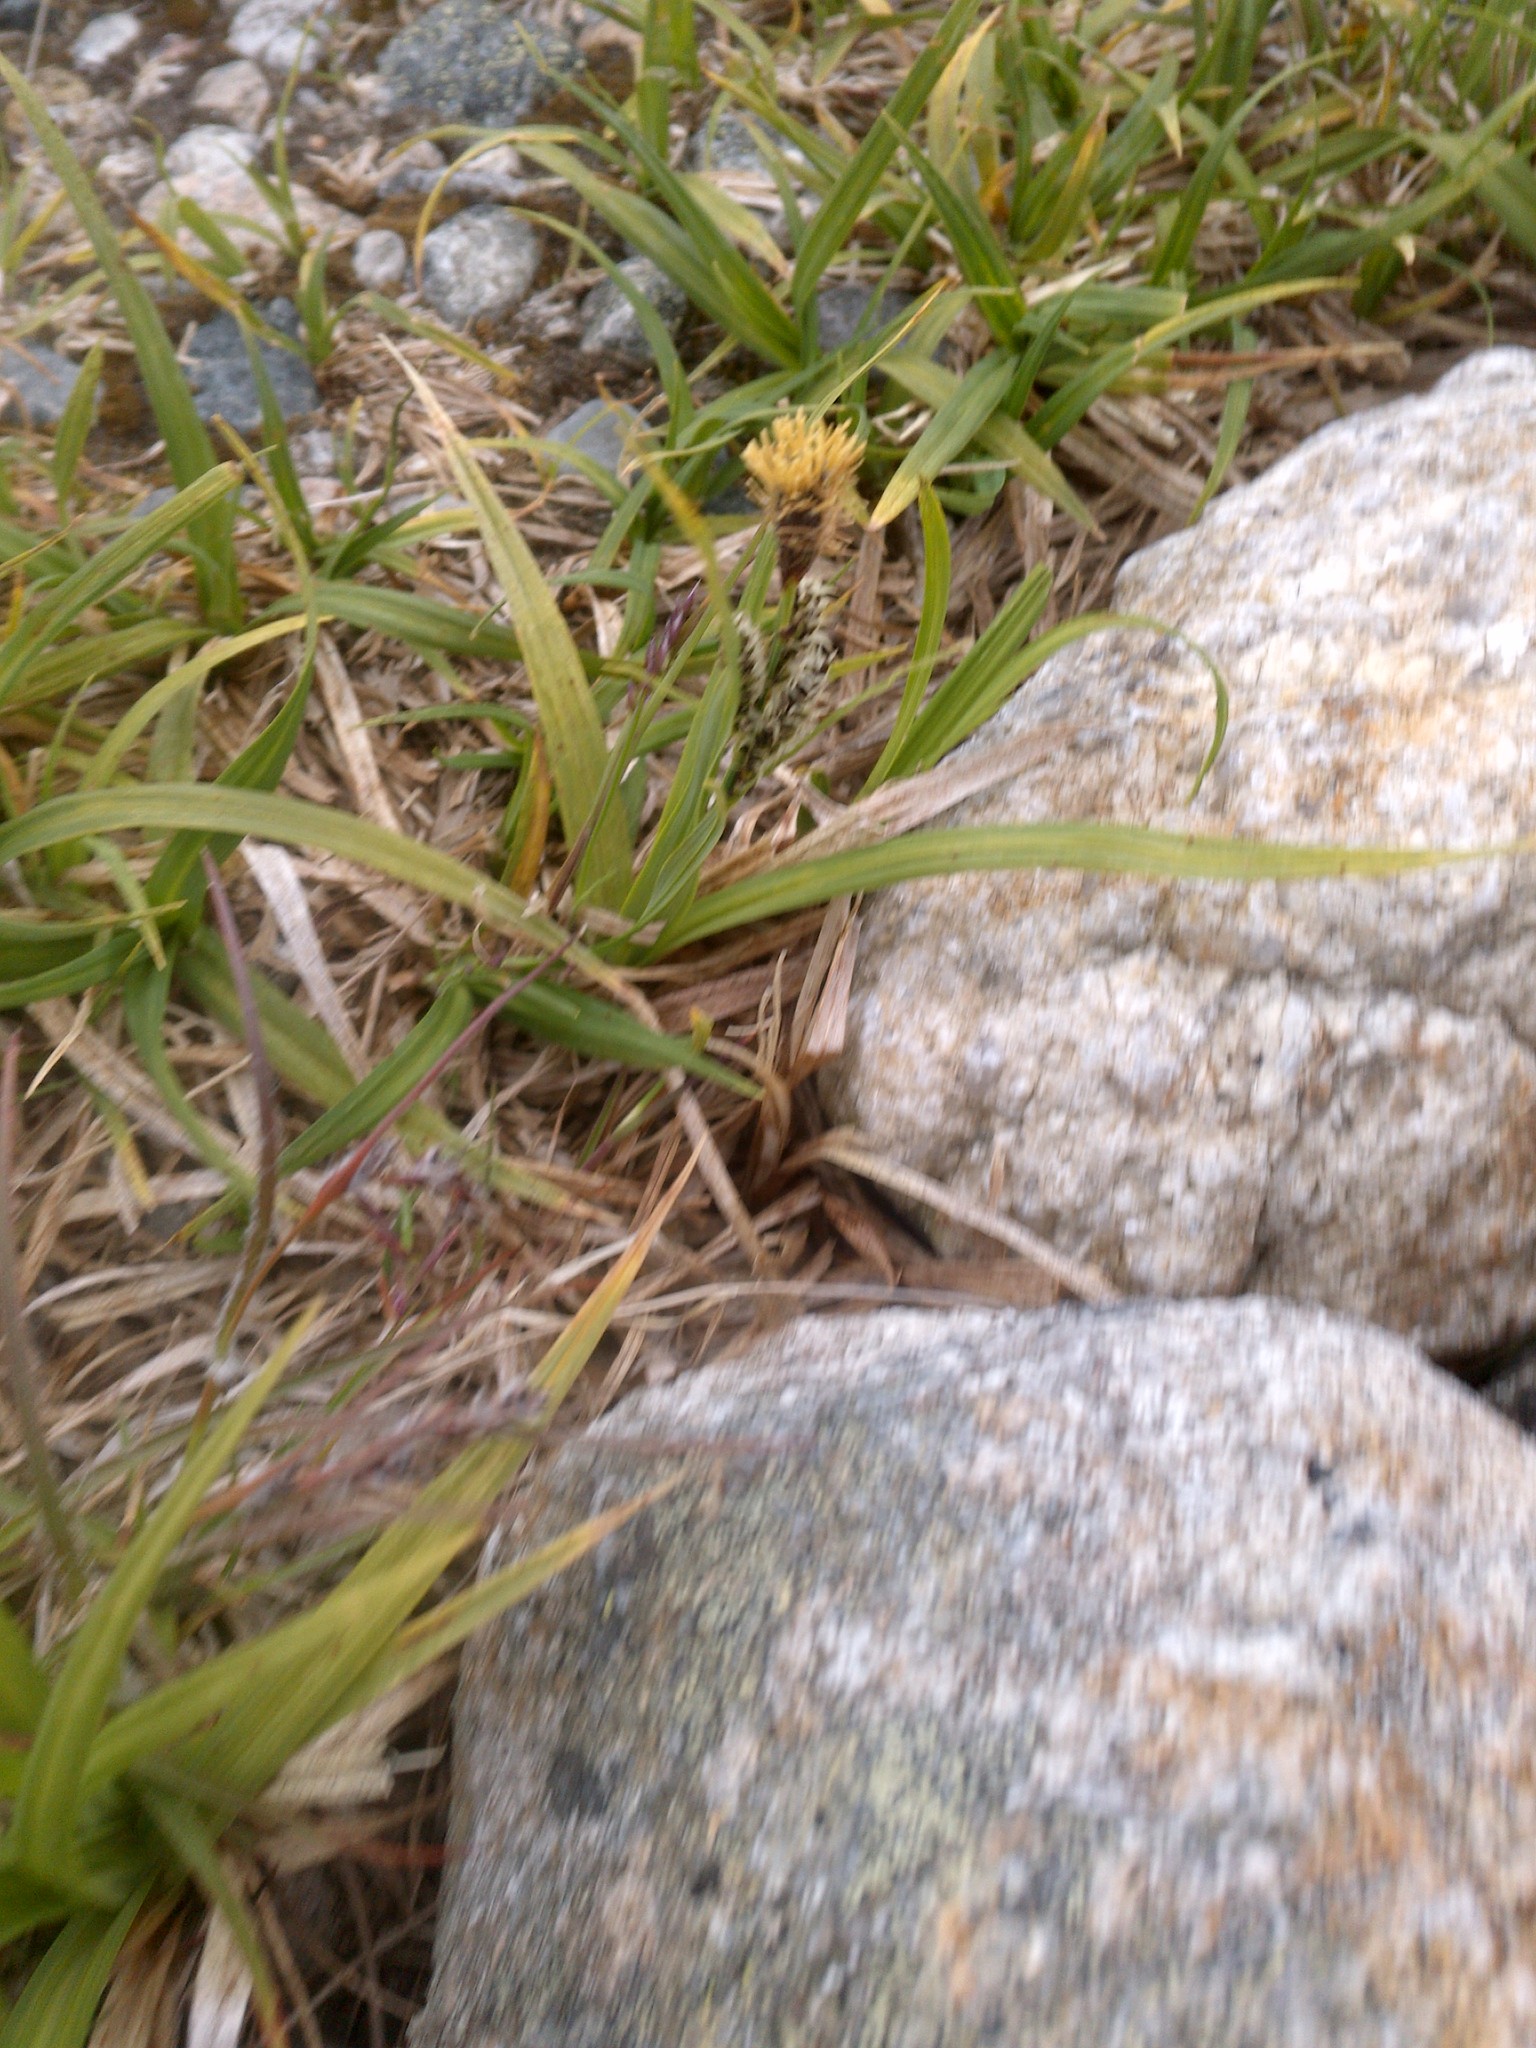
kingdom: Plantae
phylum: Tracheophyta
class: Liliopsida
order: Poales
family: Cyperaceae
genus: Carex
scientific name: Carex bigelowii
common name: Stiff sedge
